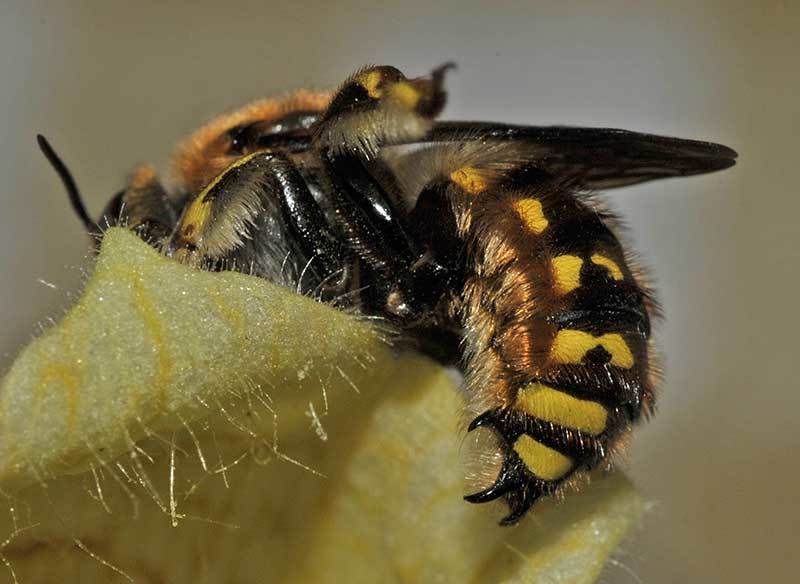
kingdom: Animalia
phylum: Arthropoda
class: Insecta
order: Hymenoptera
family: Megachilidae
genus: Anthidium
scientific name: Anthidium manicatum
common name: Wool carder bee
